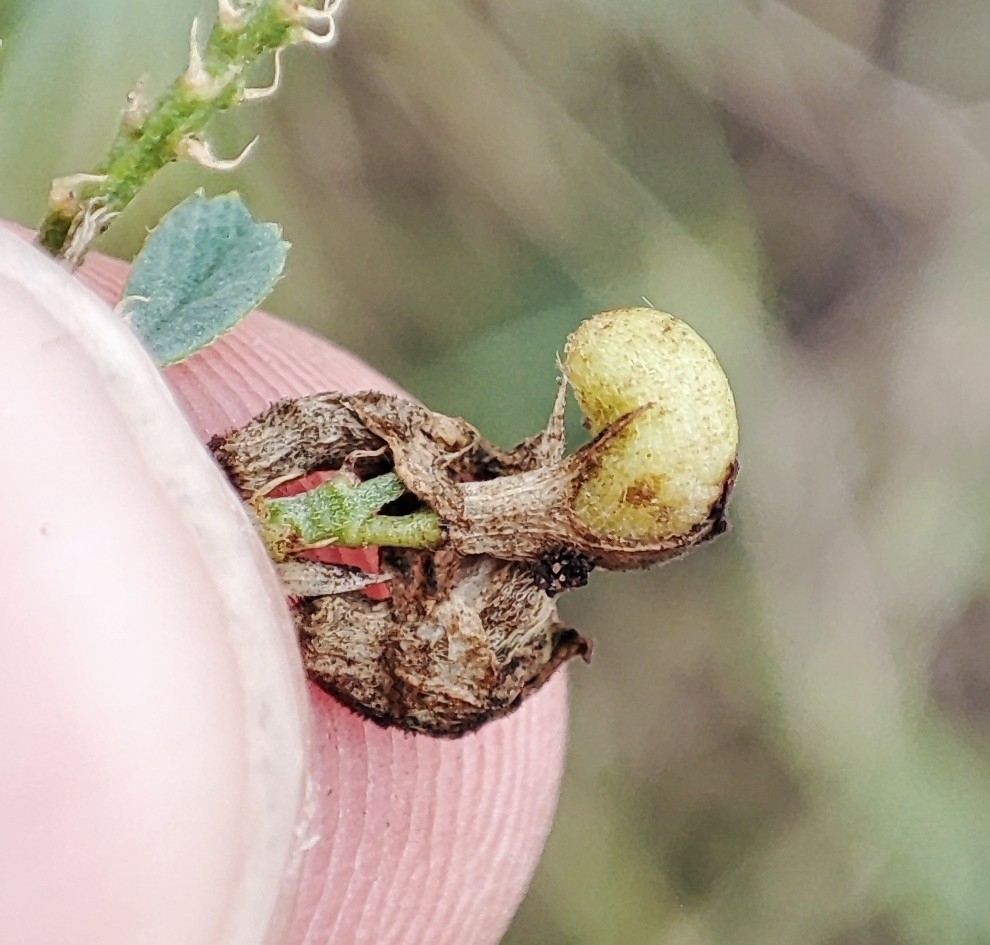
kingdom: Plantae
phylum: Tracheophyta
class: Magnoliopsida
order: Fabales
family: Fabaceae
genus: Medicago
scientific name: Medicago varia
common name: Sand lucerne
